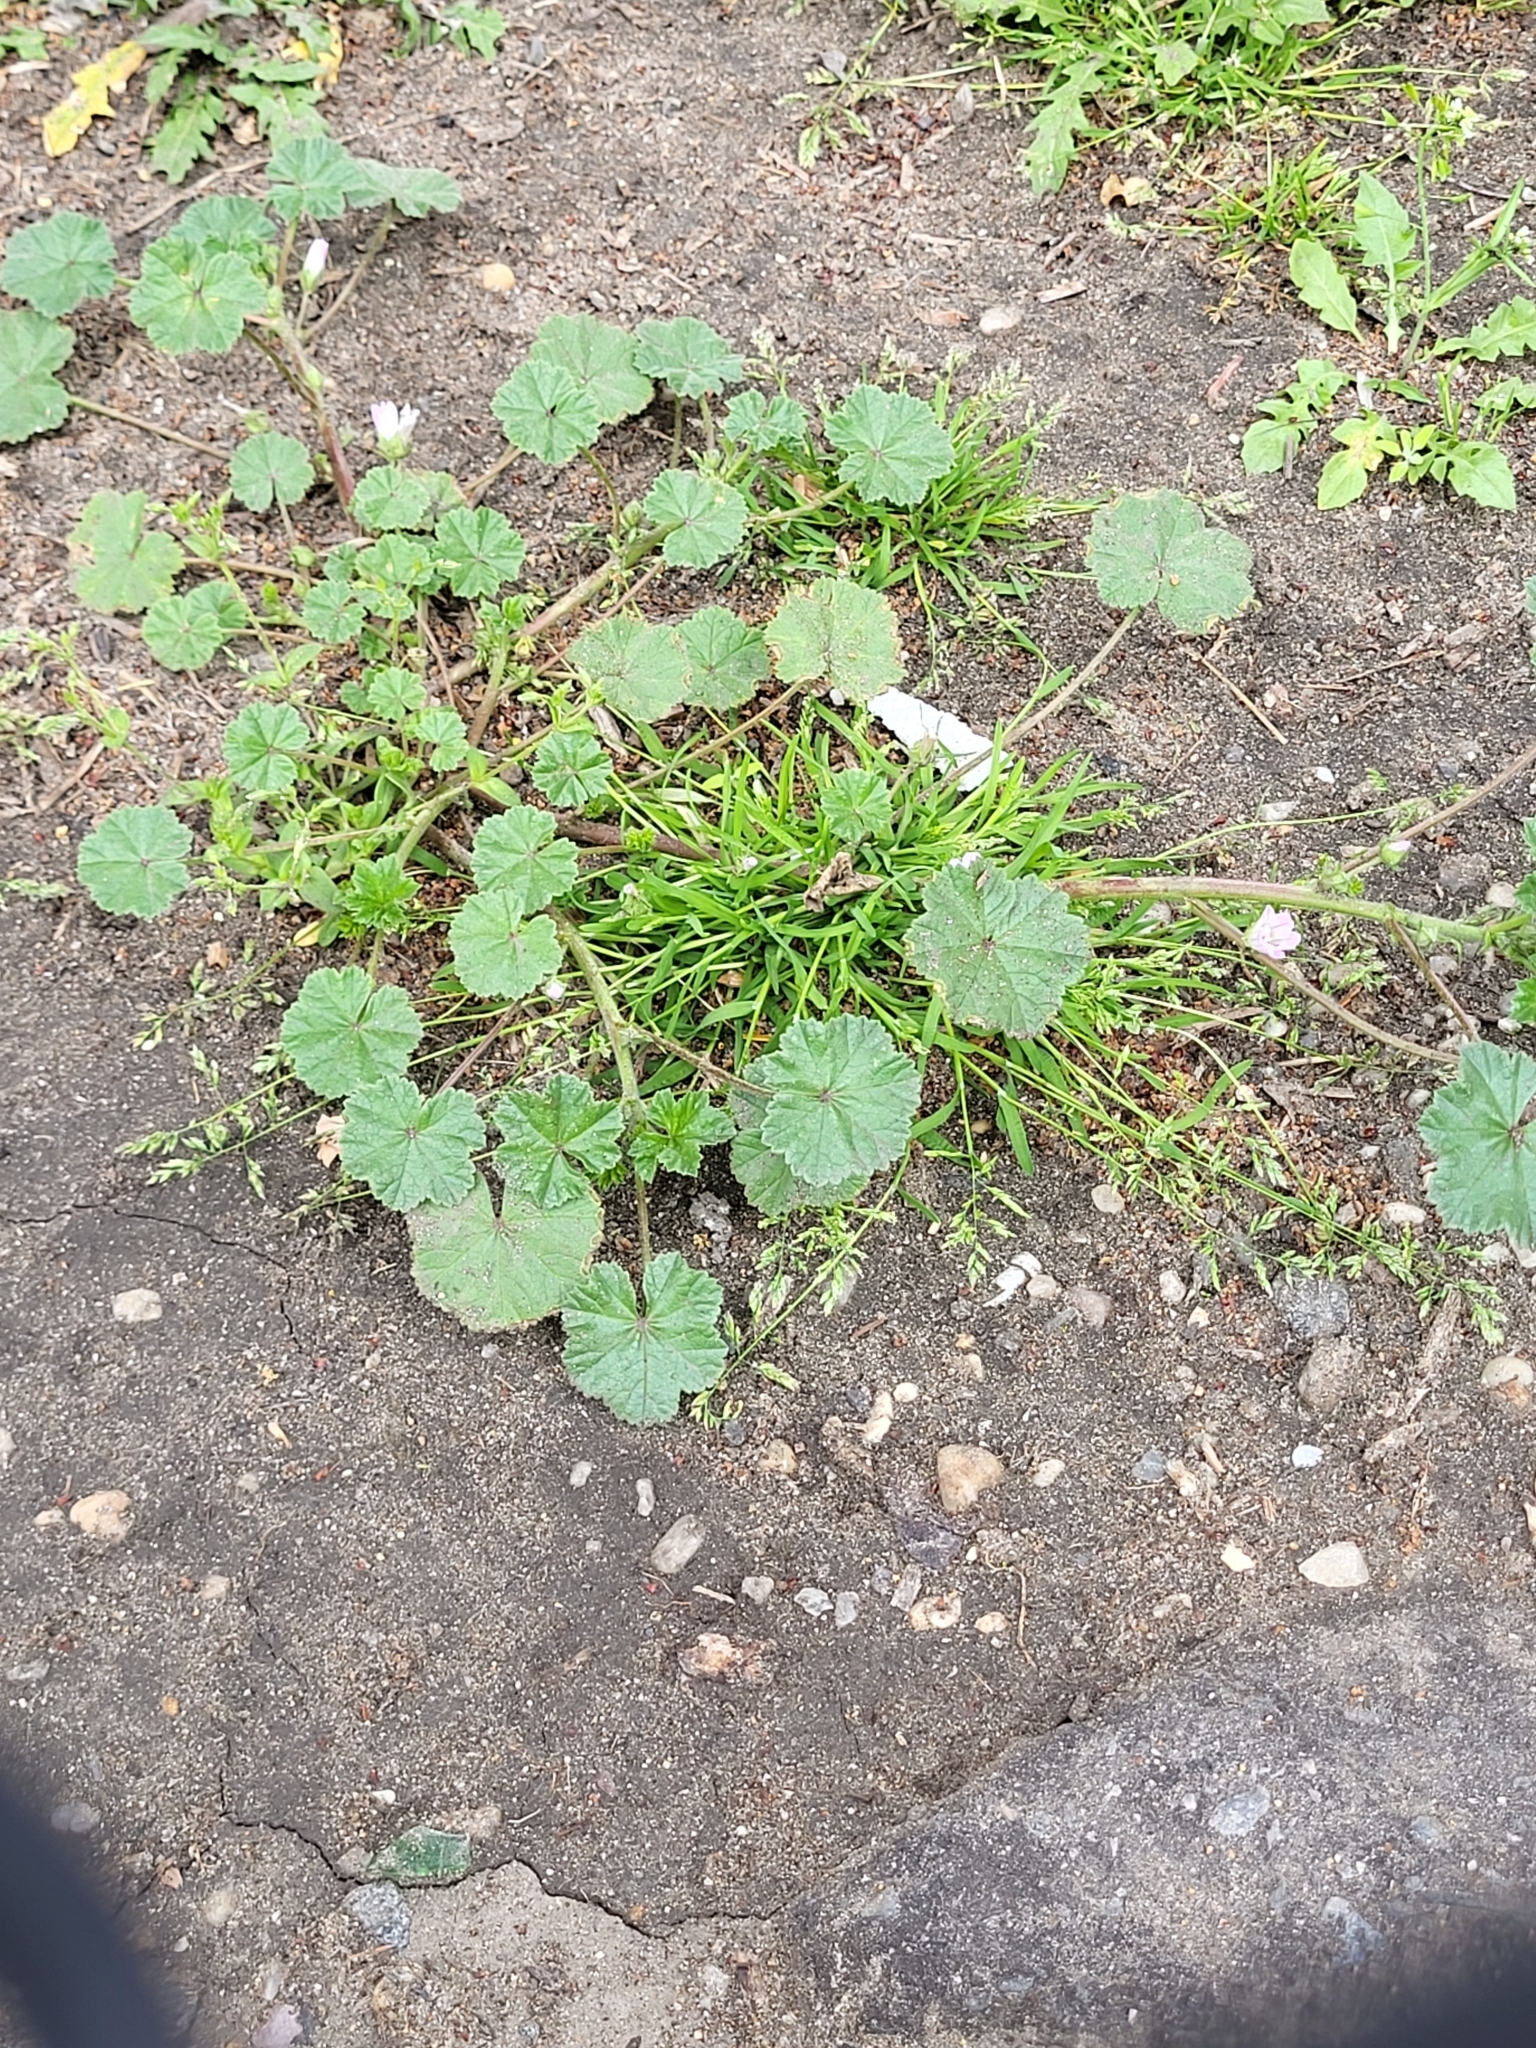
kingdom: Plantae
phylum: Tracheophyta
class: Magnoliopsida
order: Malvales
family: Malvaceae
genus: Malva
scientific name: Malva neglecta
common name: Common mallow
